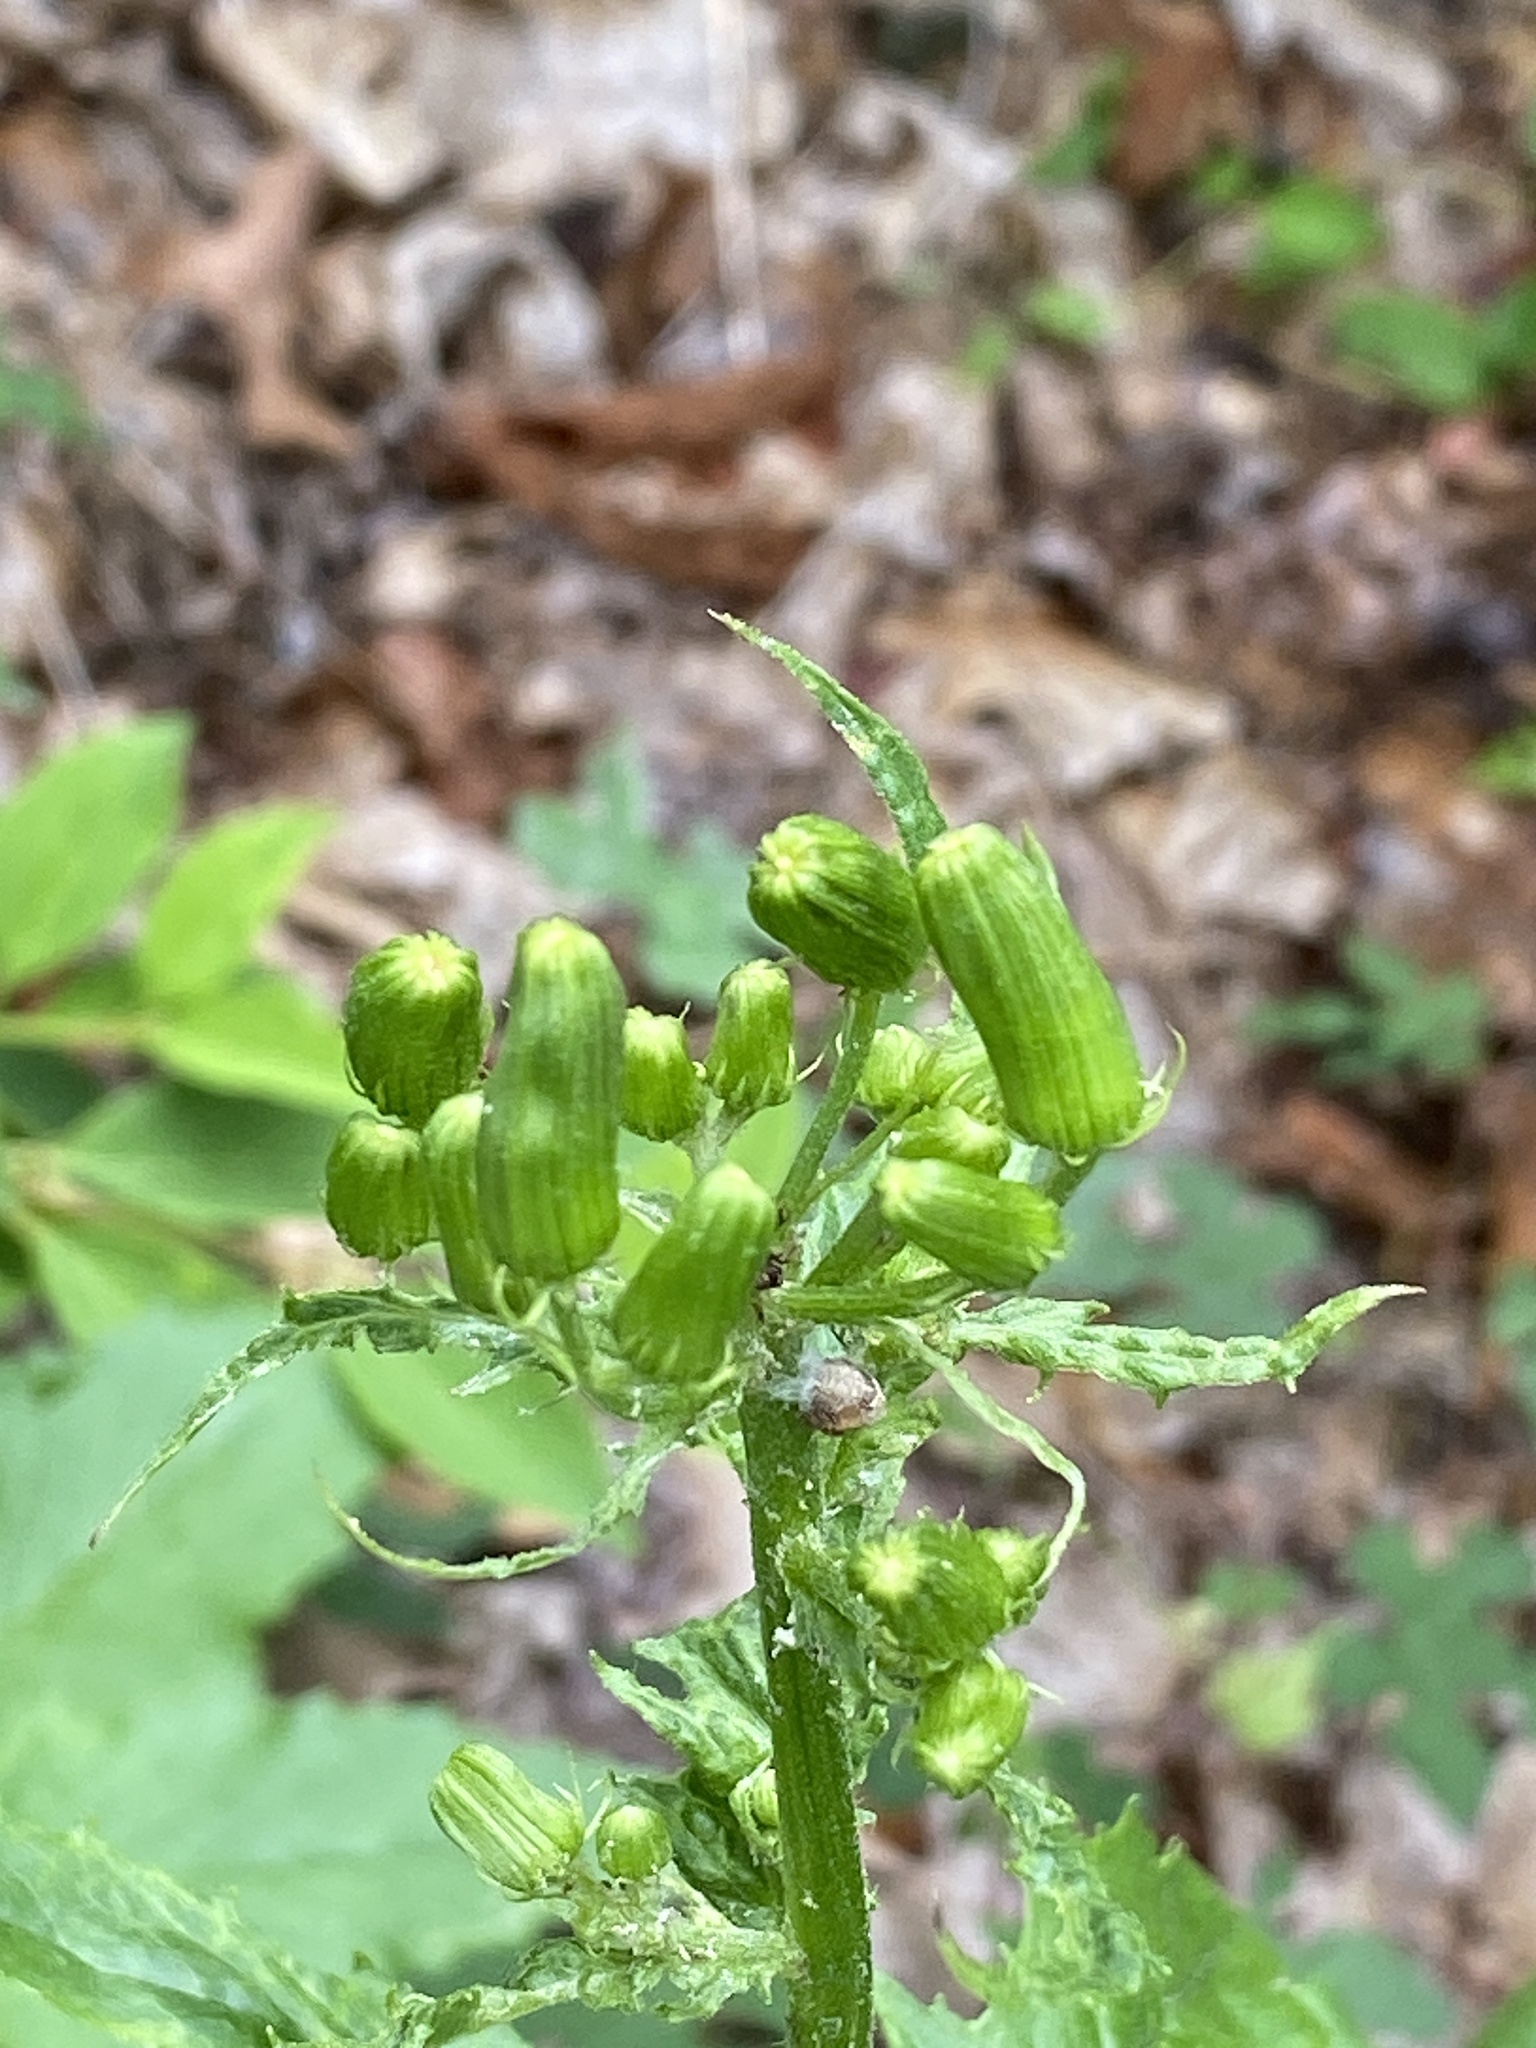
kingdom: Plantae
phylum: Tracheophyta
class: Magnoliopsida
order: Asterales
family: Asteraceae
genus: Erechtites
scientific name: Erechtites hieraciifolius
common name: American burnweed
